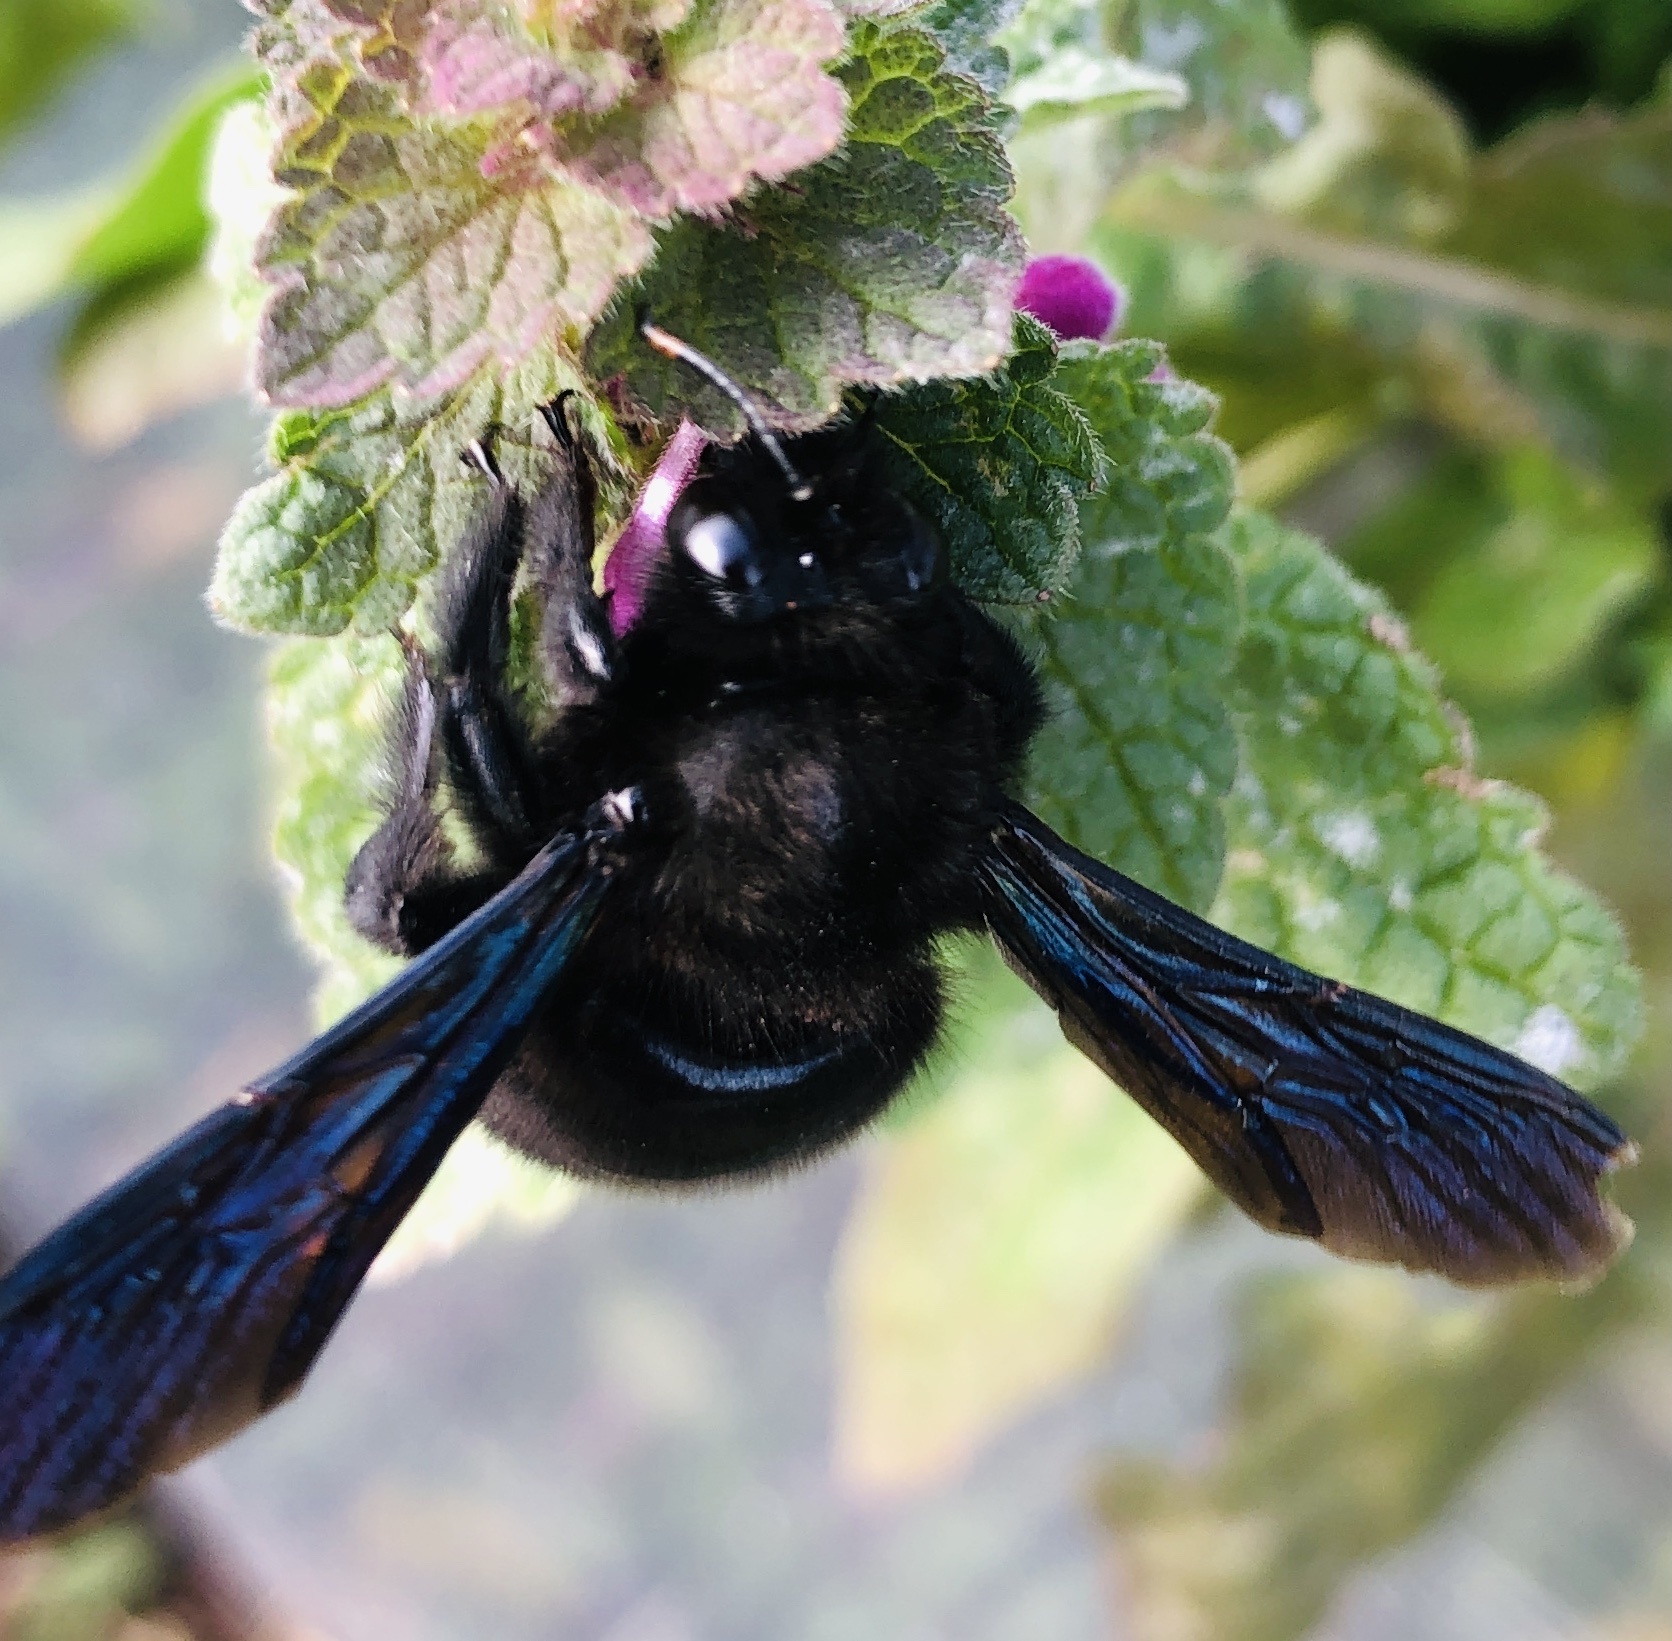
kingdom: Animalia
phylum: Arthropoda
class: Insecta
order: Hymenoptera
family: Apidae
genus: Xylocopa
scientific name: Xylocopa violacea
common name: Violet carpenter bee
